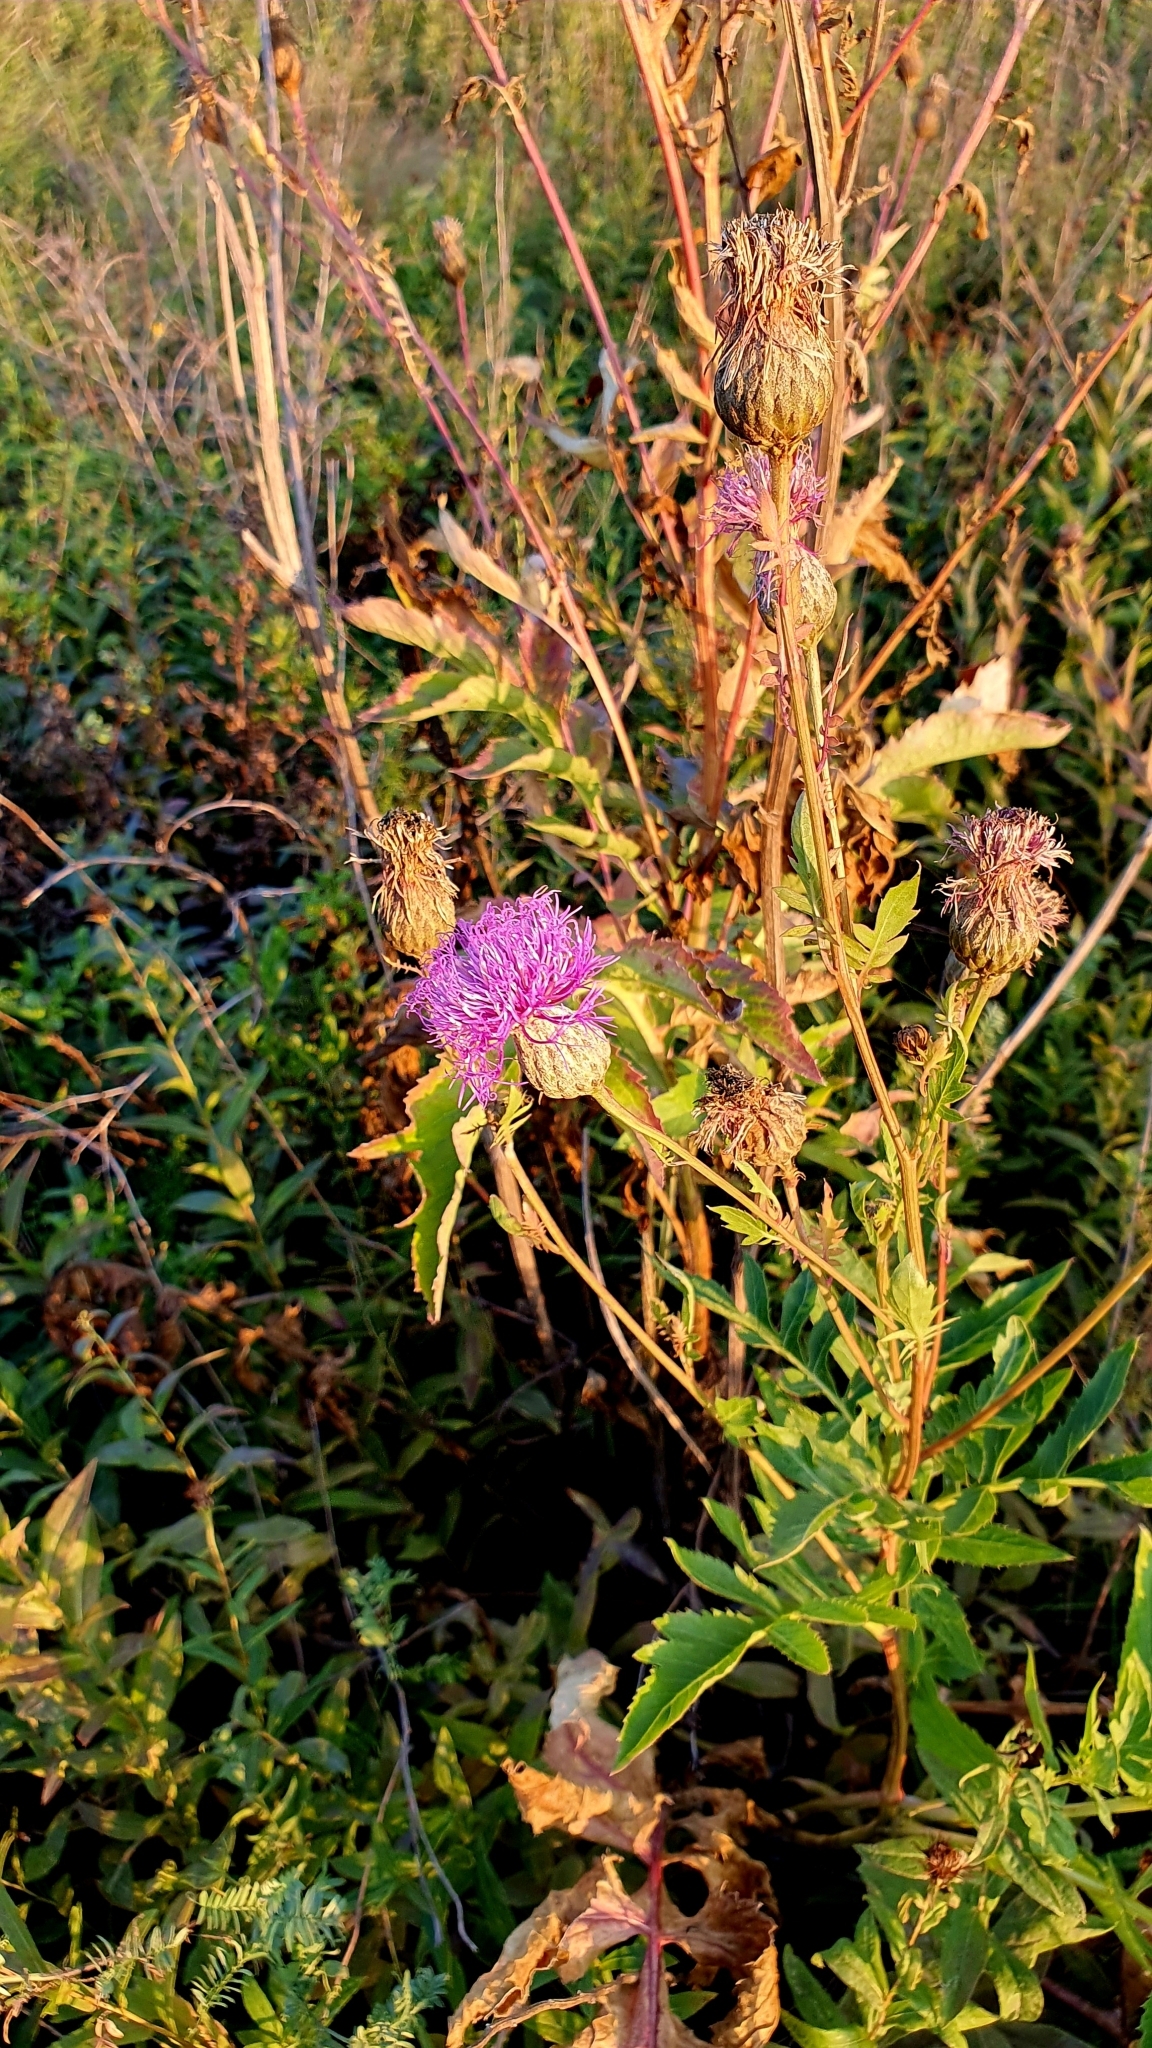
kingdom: Plantae
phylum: Tracheophyta
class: Magnoliopsida
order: Asterales
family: Asteraceae
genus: Serratula
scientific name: Serratula coronata
